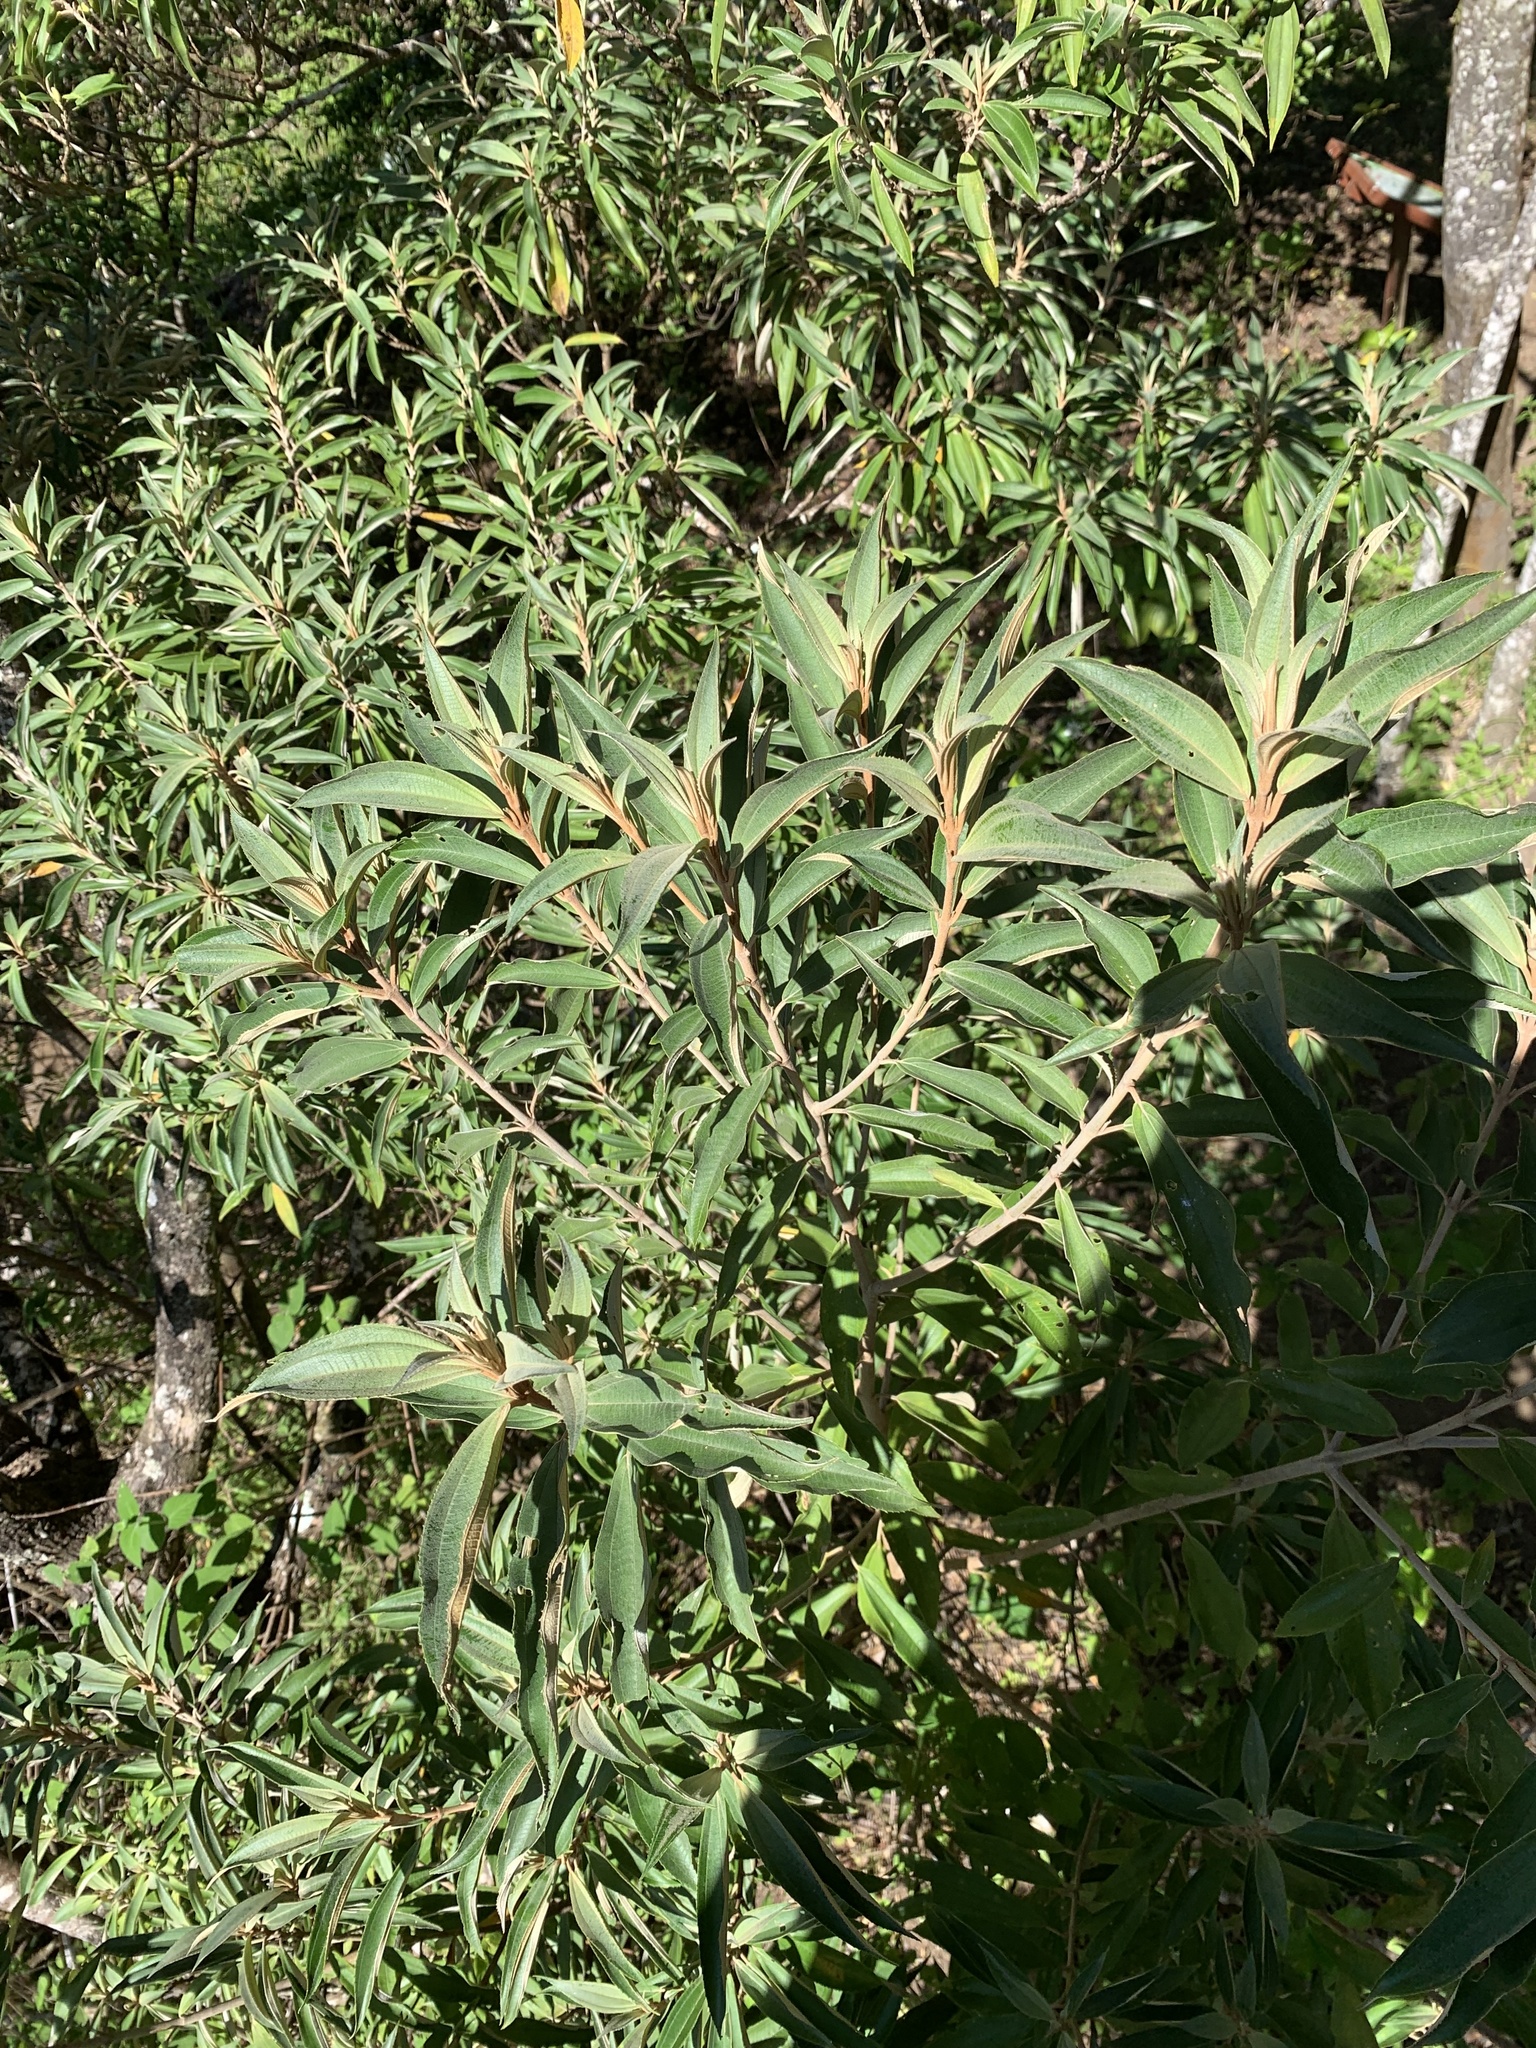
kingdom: Plantae
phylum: Tracheophyta
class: Magnoliopsida
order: Myrtales
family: Melastomataceae
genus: Miconia
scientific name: Miconia xalapensis
